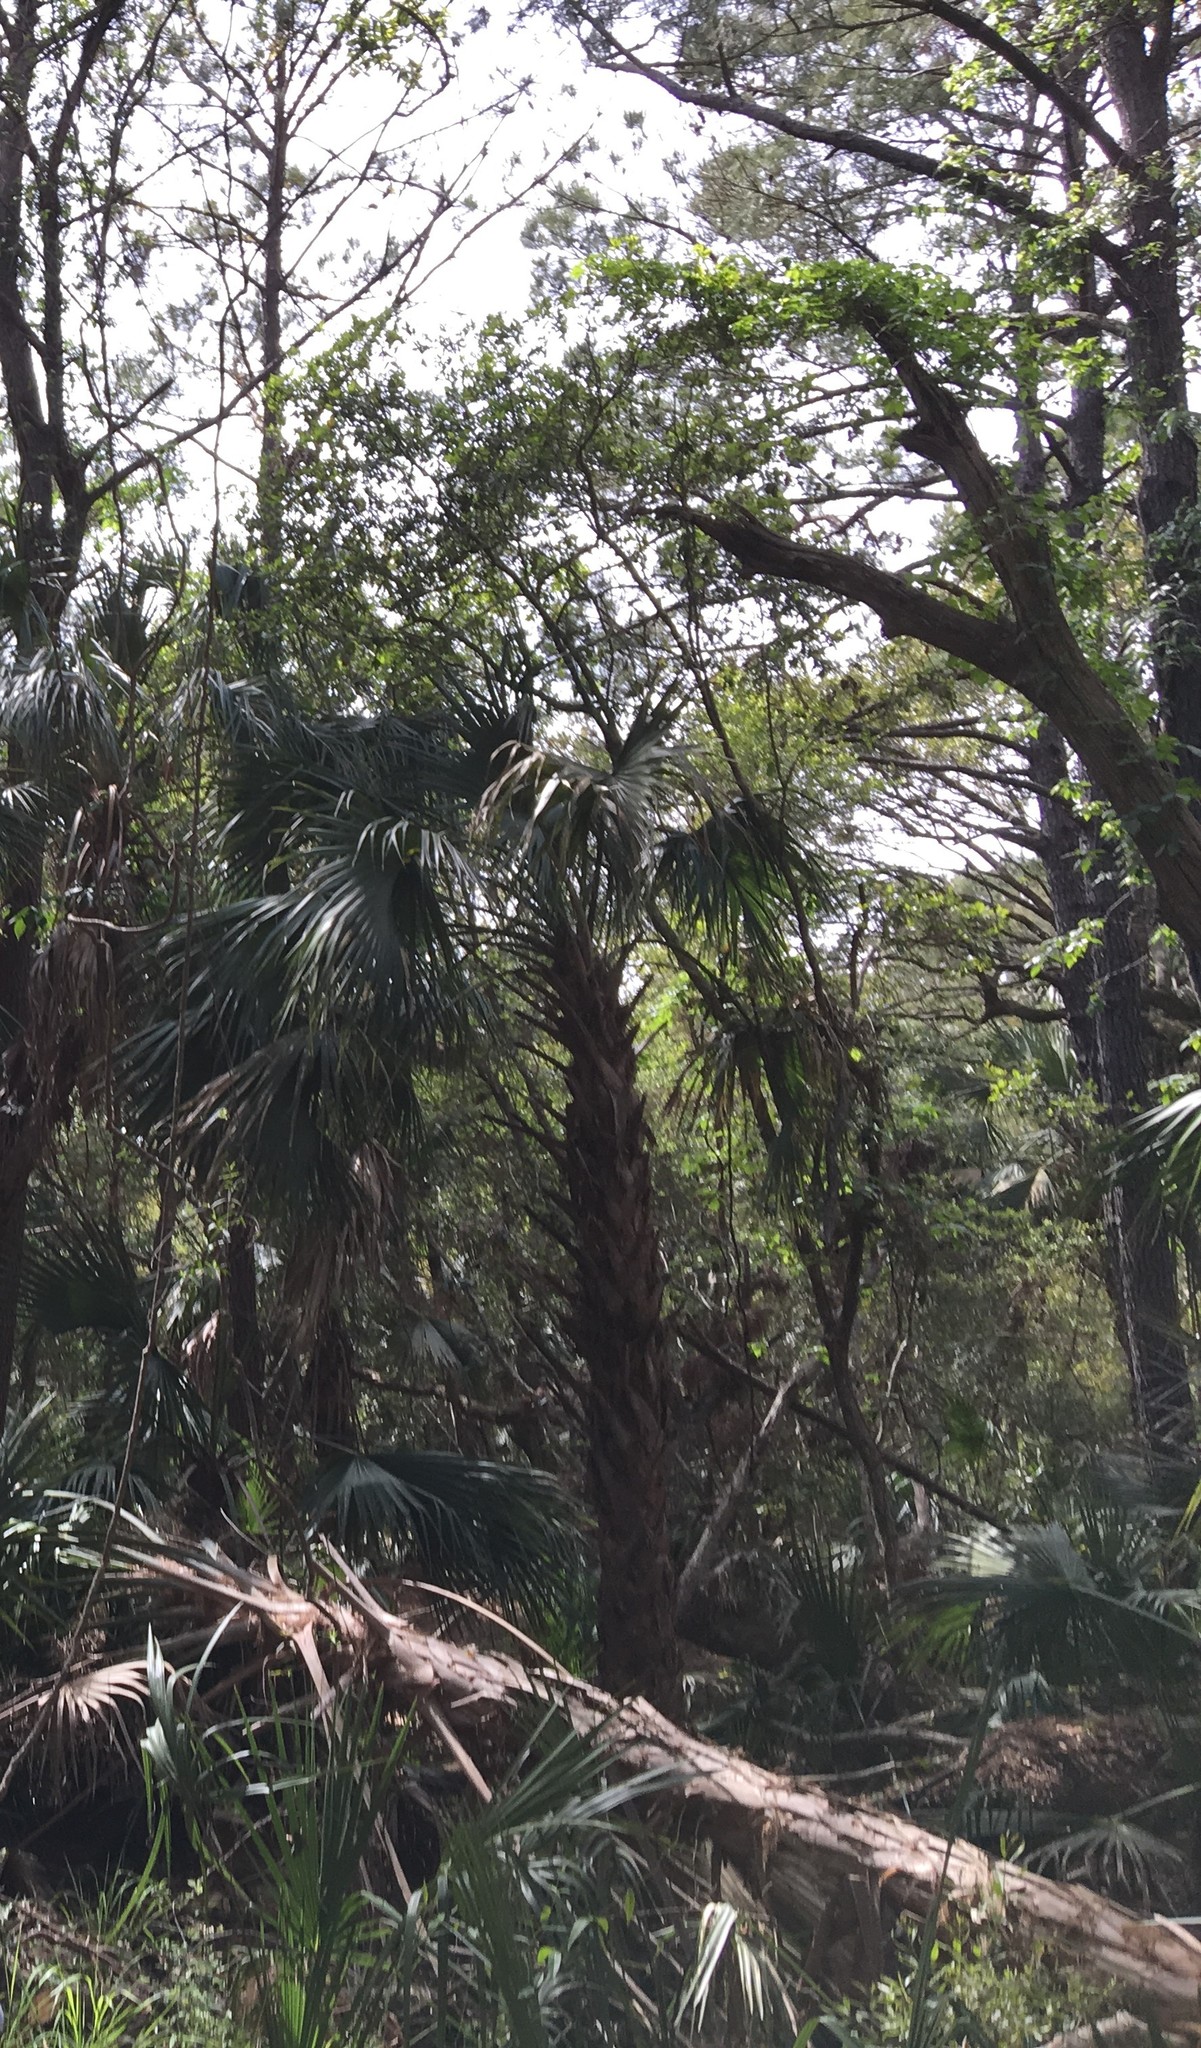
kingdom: Plantae
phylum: Tracheophyta
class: Liliopsida
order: Arecales
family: Arecaceae
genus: Sabal
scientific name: Sabal palmetto
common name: Blue palmetto
